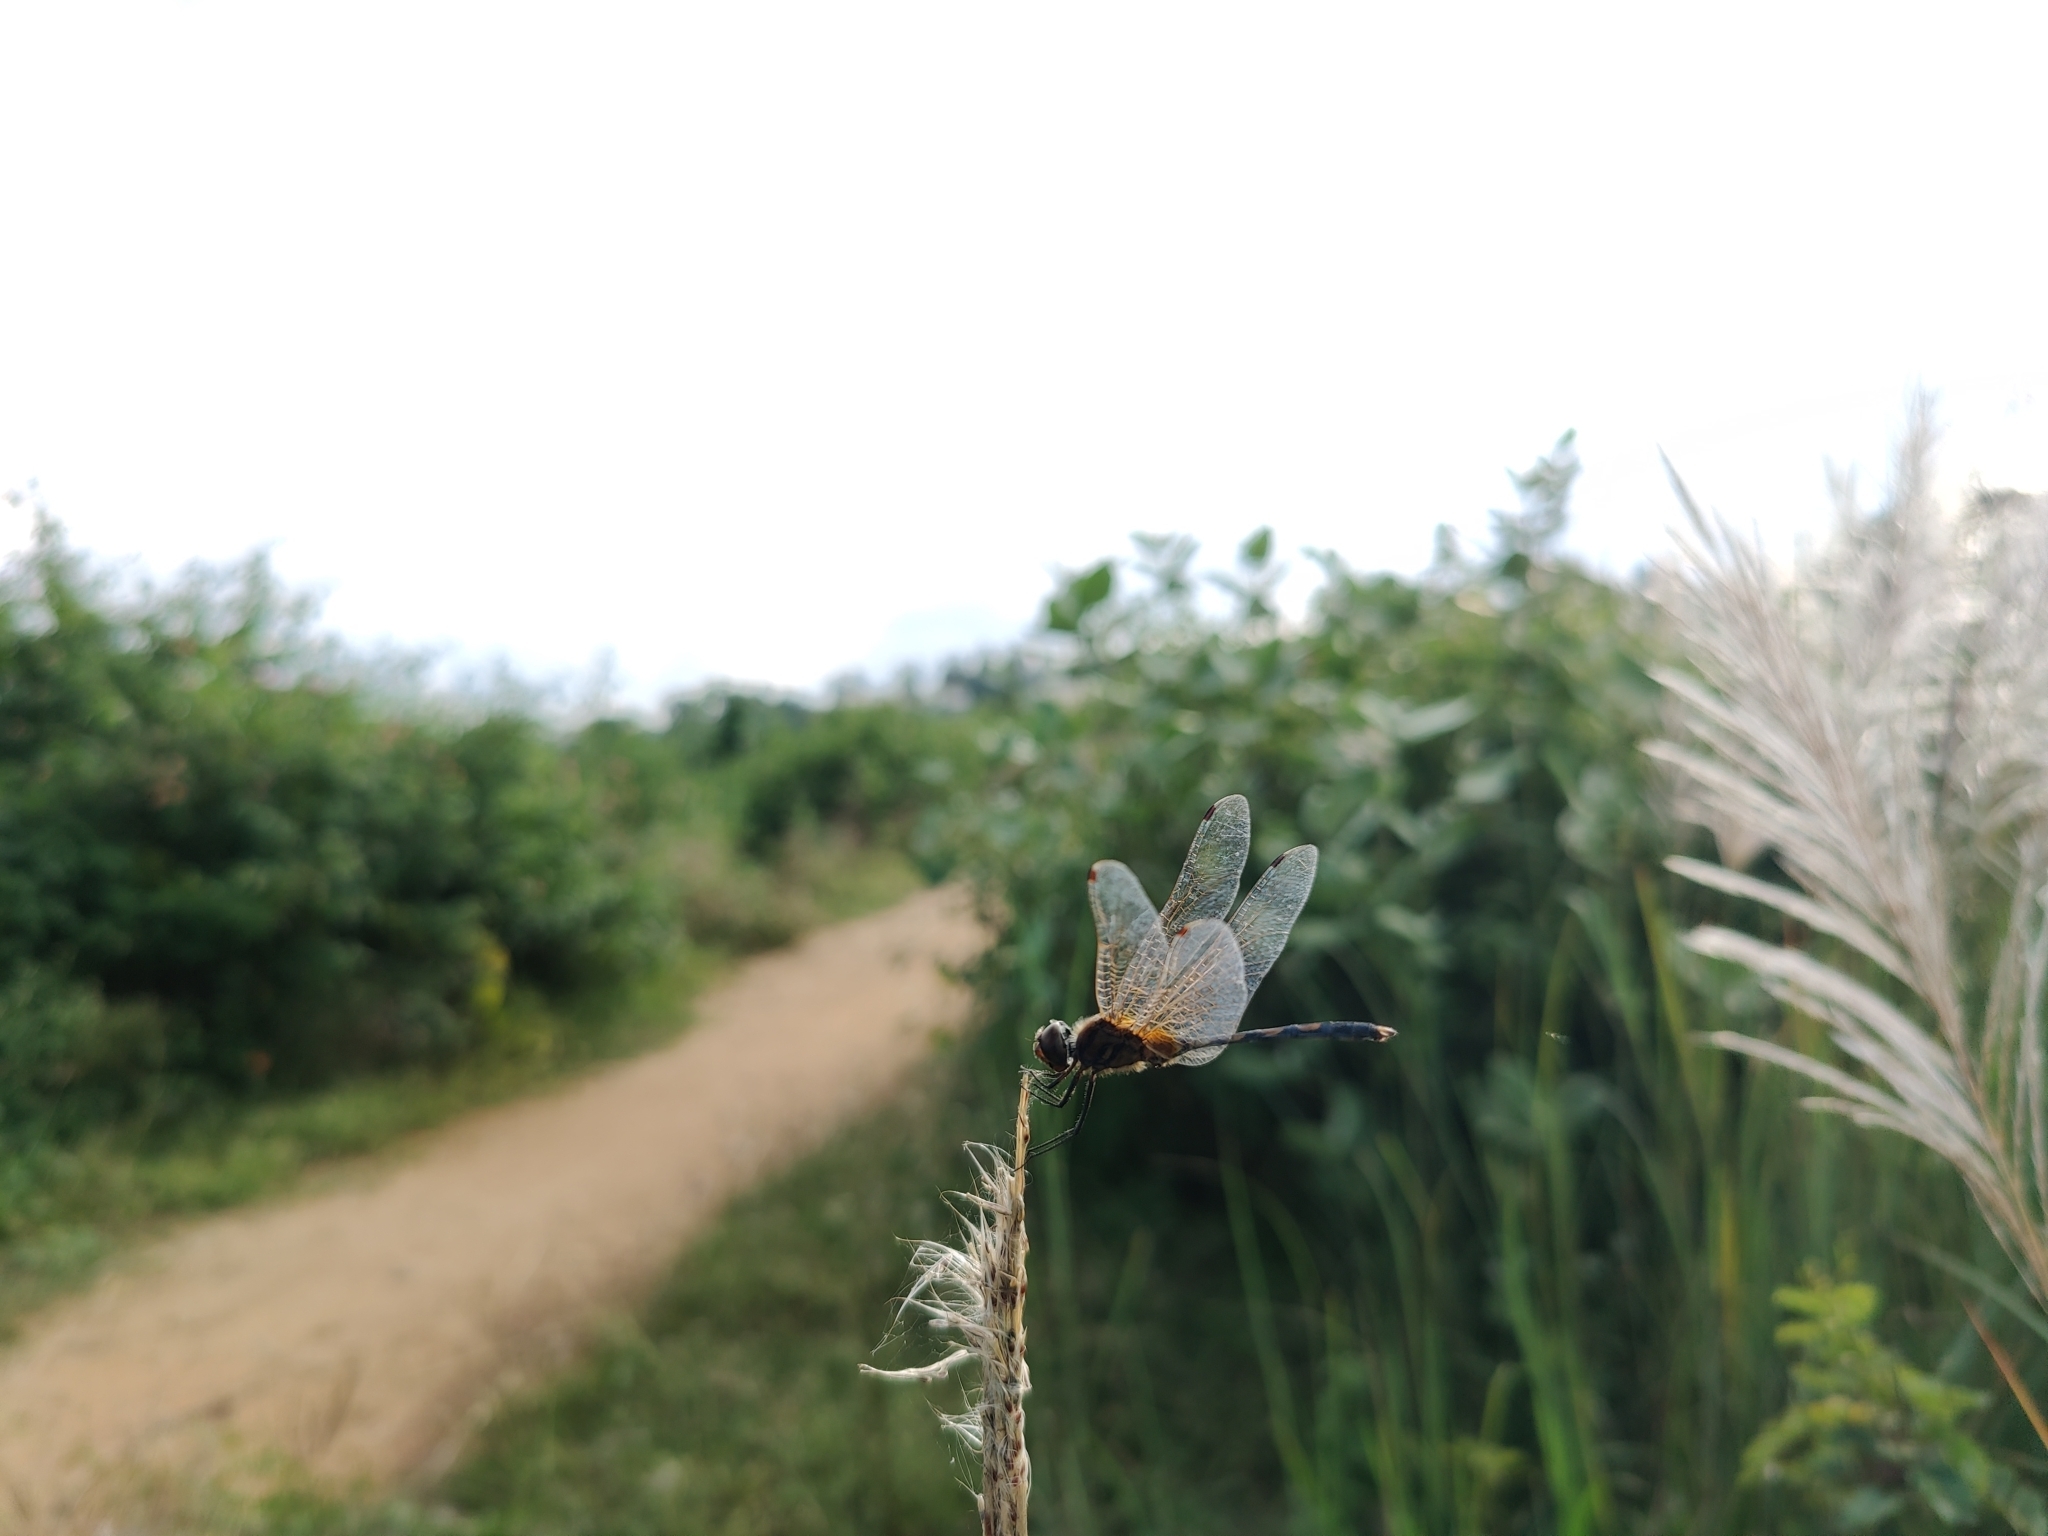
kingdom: Animalia
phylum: Arthropoda
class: Insecta
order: Odonata
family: Libellulidae
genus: Trithemis
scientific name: Trithemis pallidinervis
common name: Dancing dropwing
